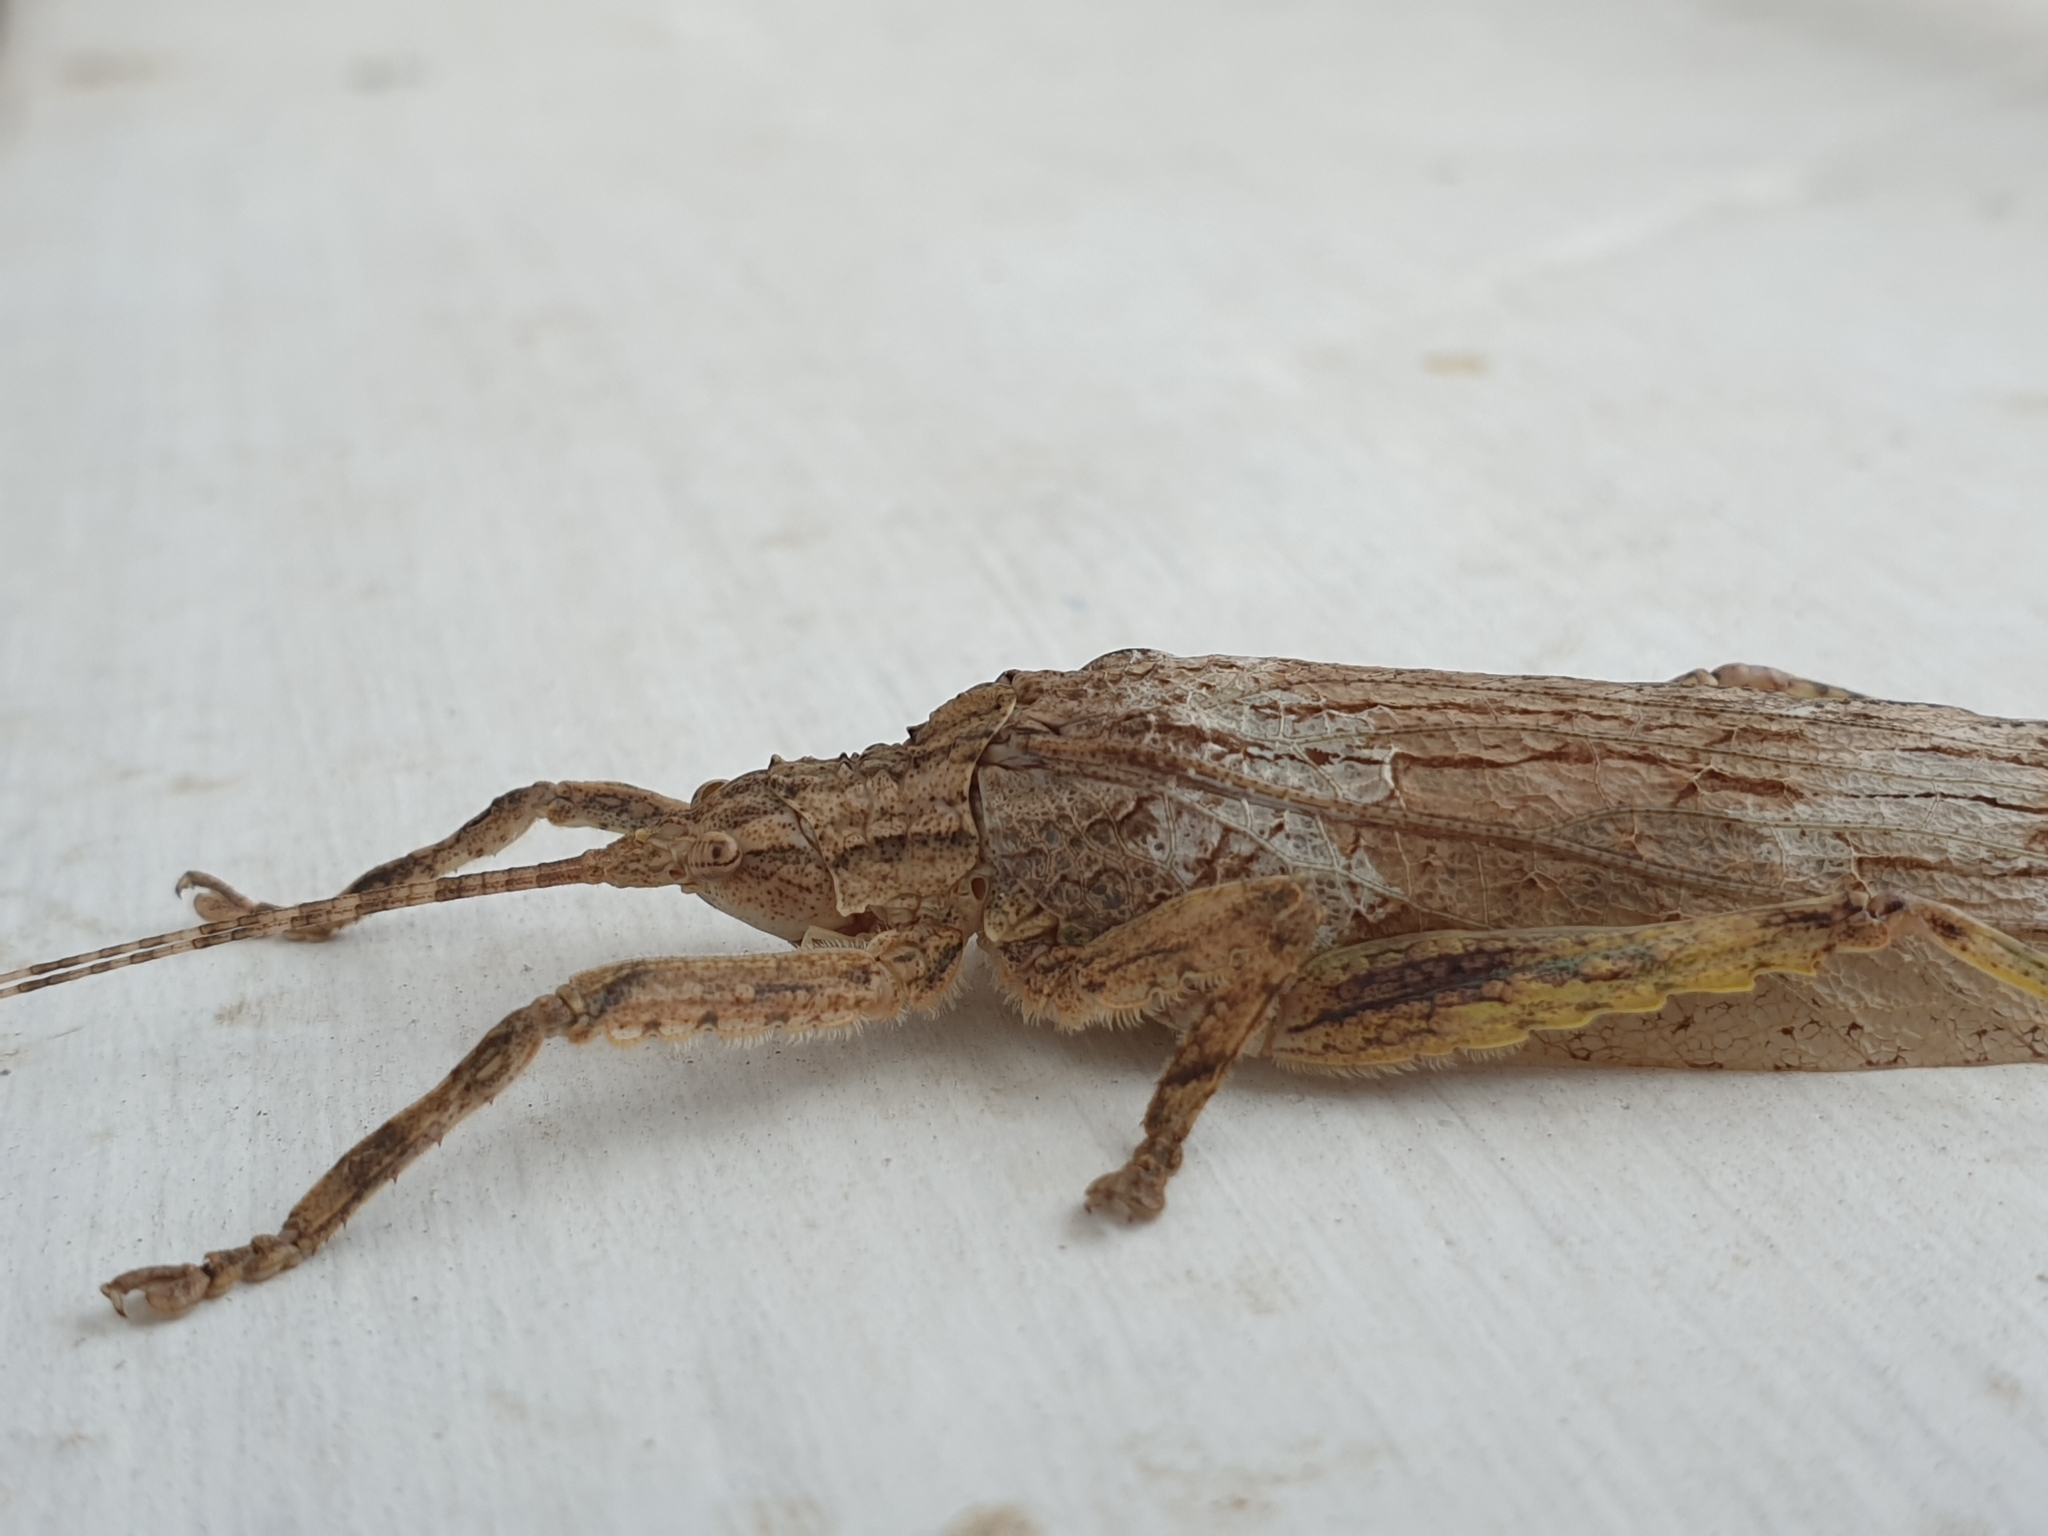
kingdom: Animalia
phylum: Arthropoda
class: Insecta
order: Orthoptera
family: Tettigoniidae
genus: Sathrophyllia
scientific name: Sathrophyllia rugosa
